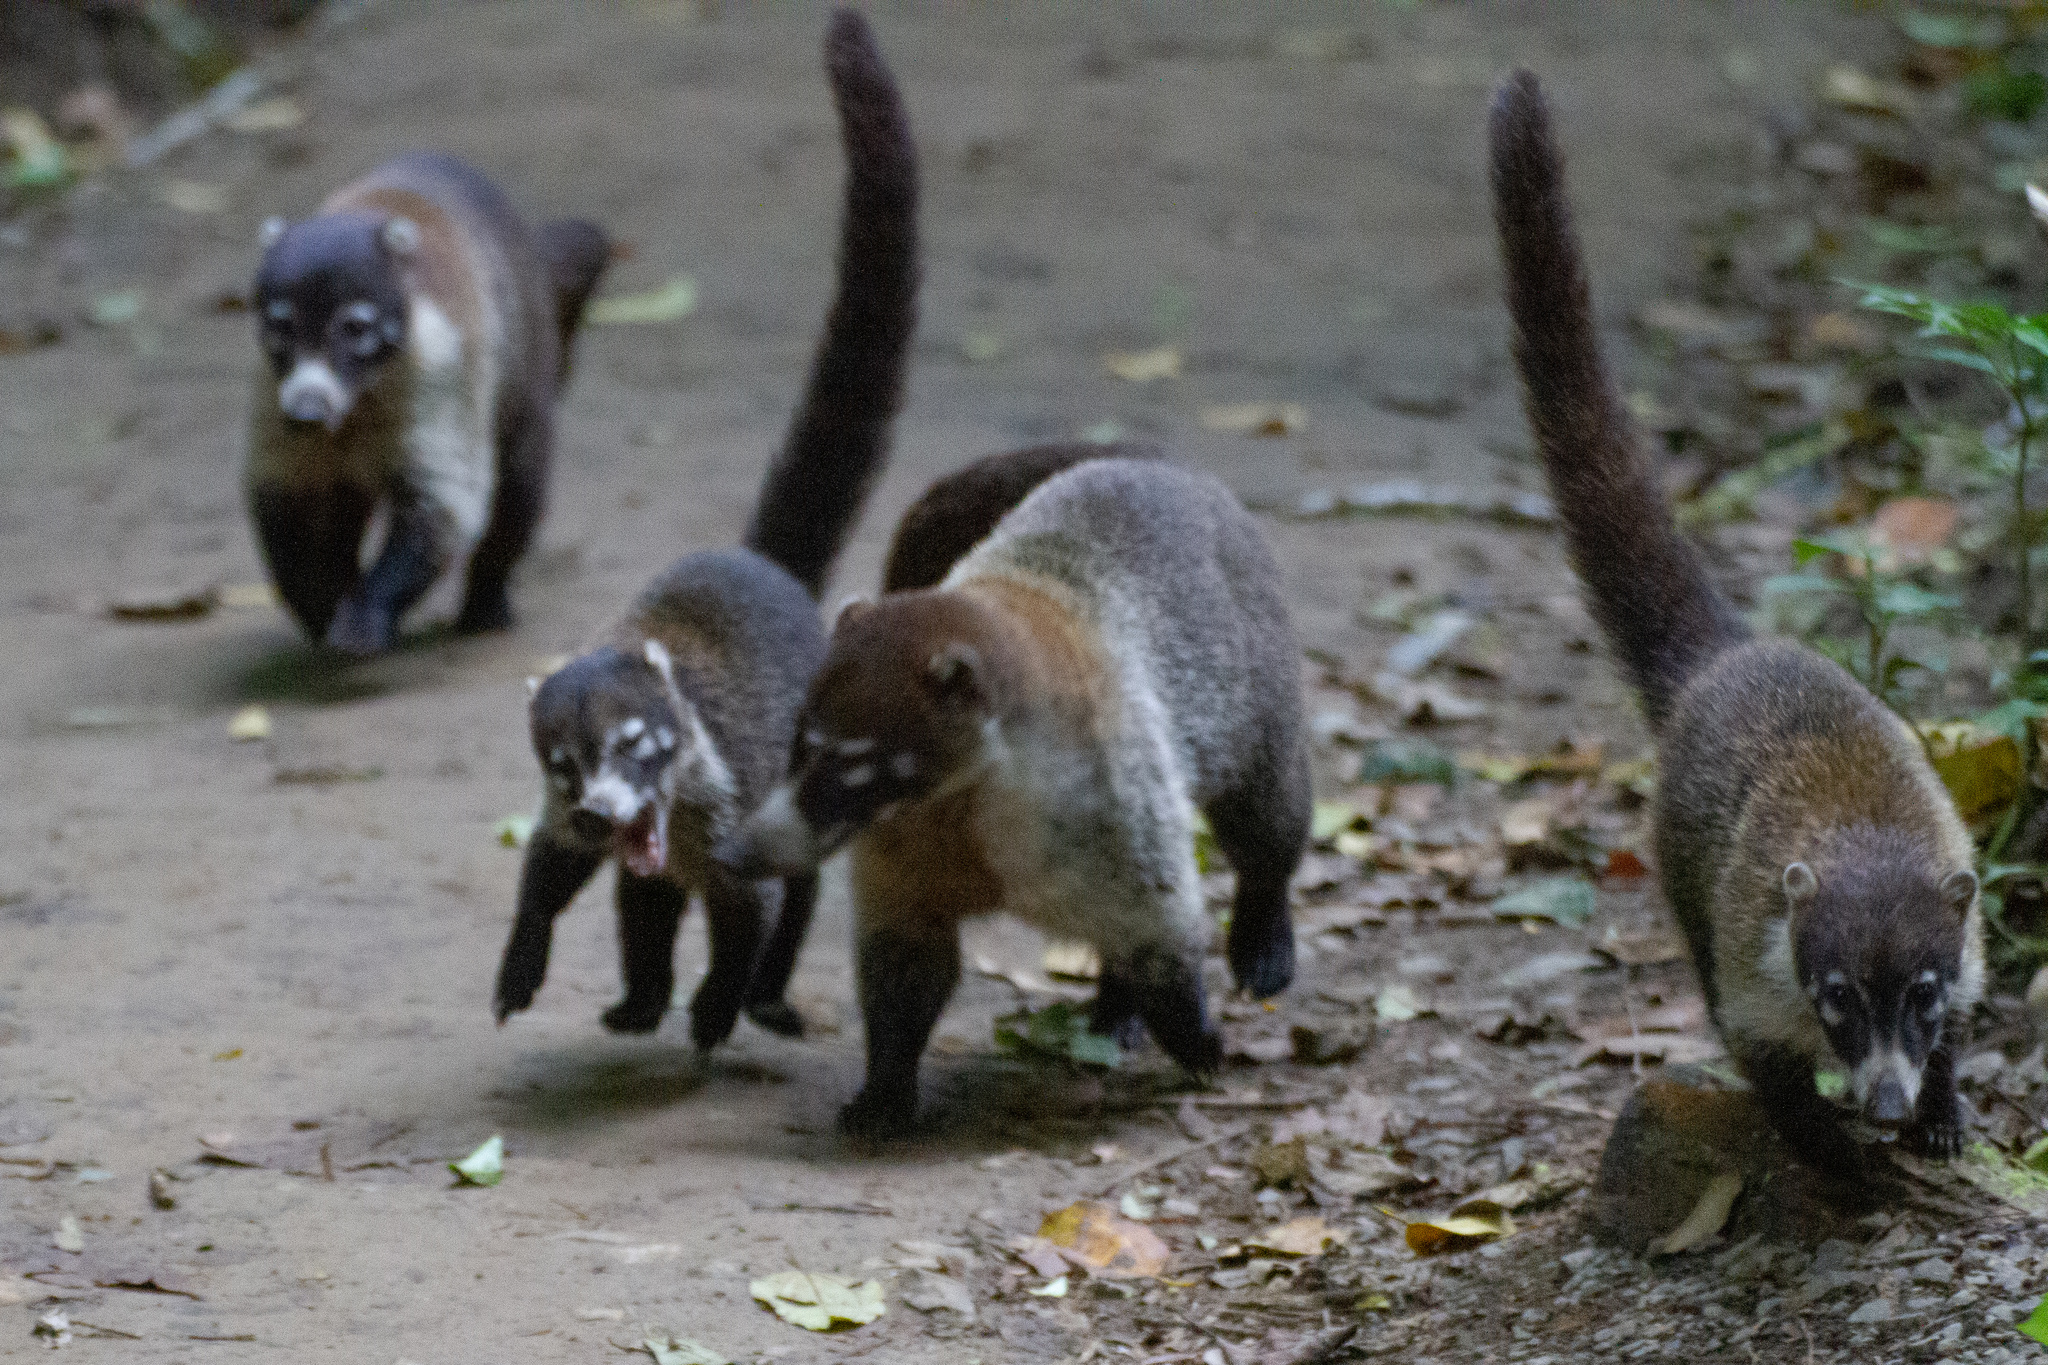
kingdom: Animalia
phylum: Chordata
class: Mammalia
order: Carnivora
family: Procyonidae
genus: Nasua
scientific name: Nasua narica
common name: White-nosed coati
